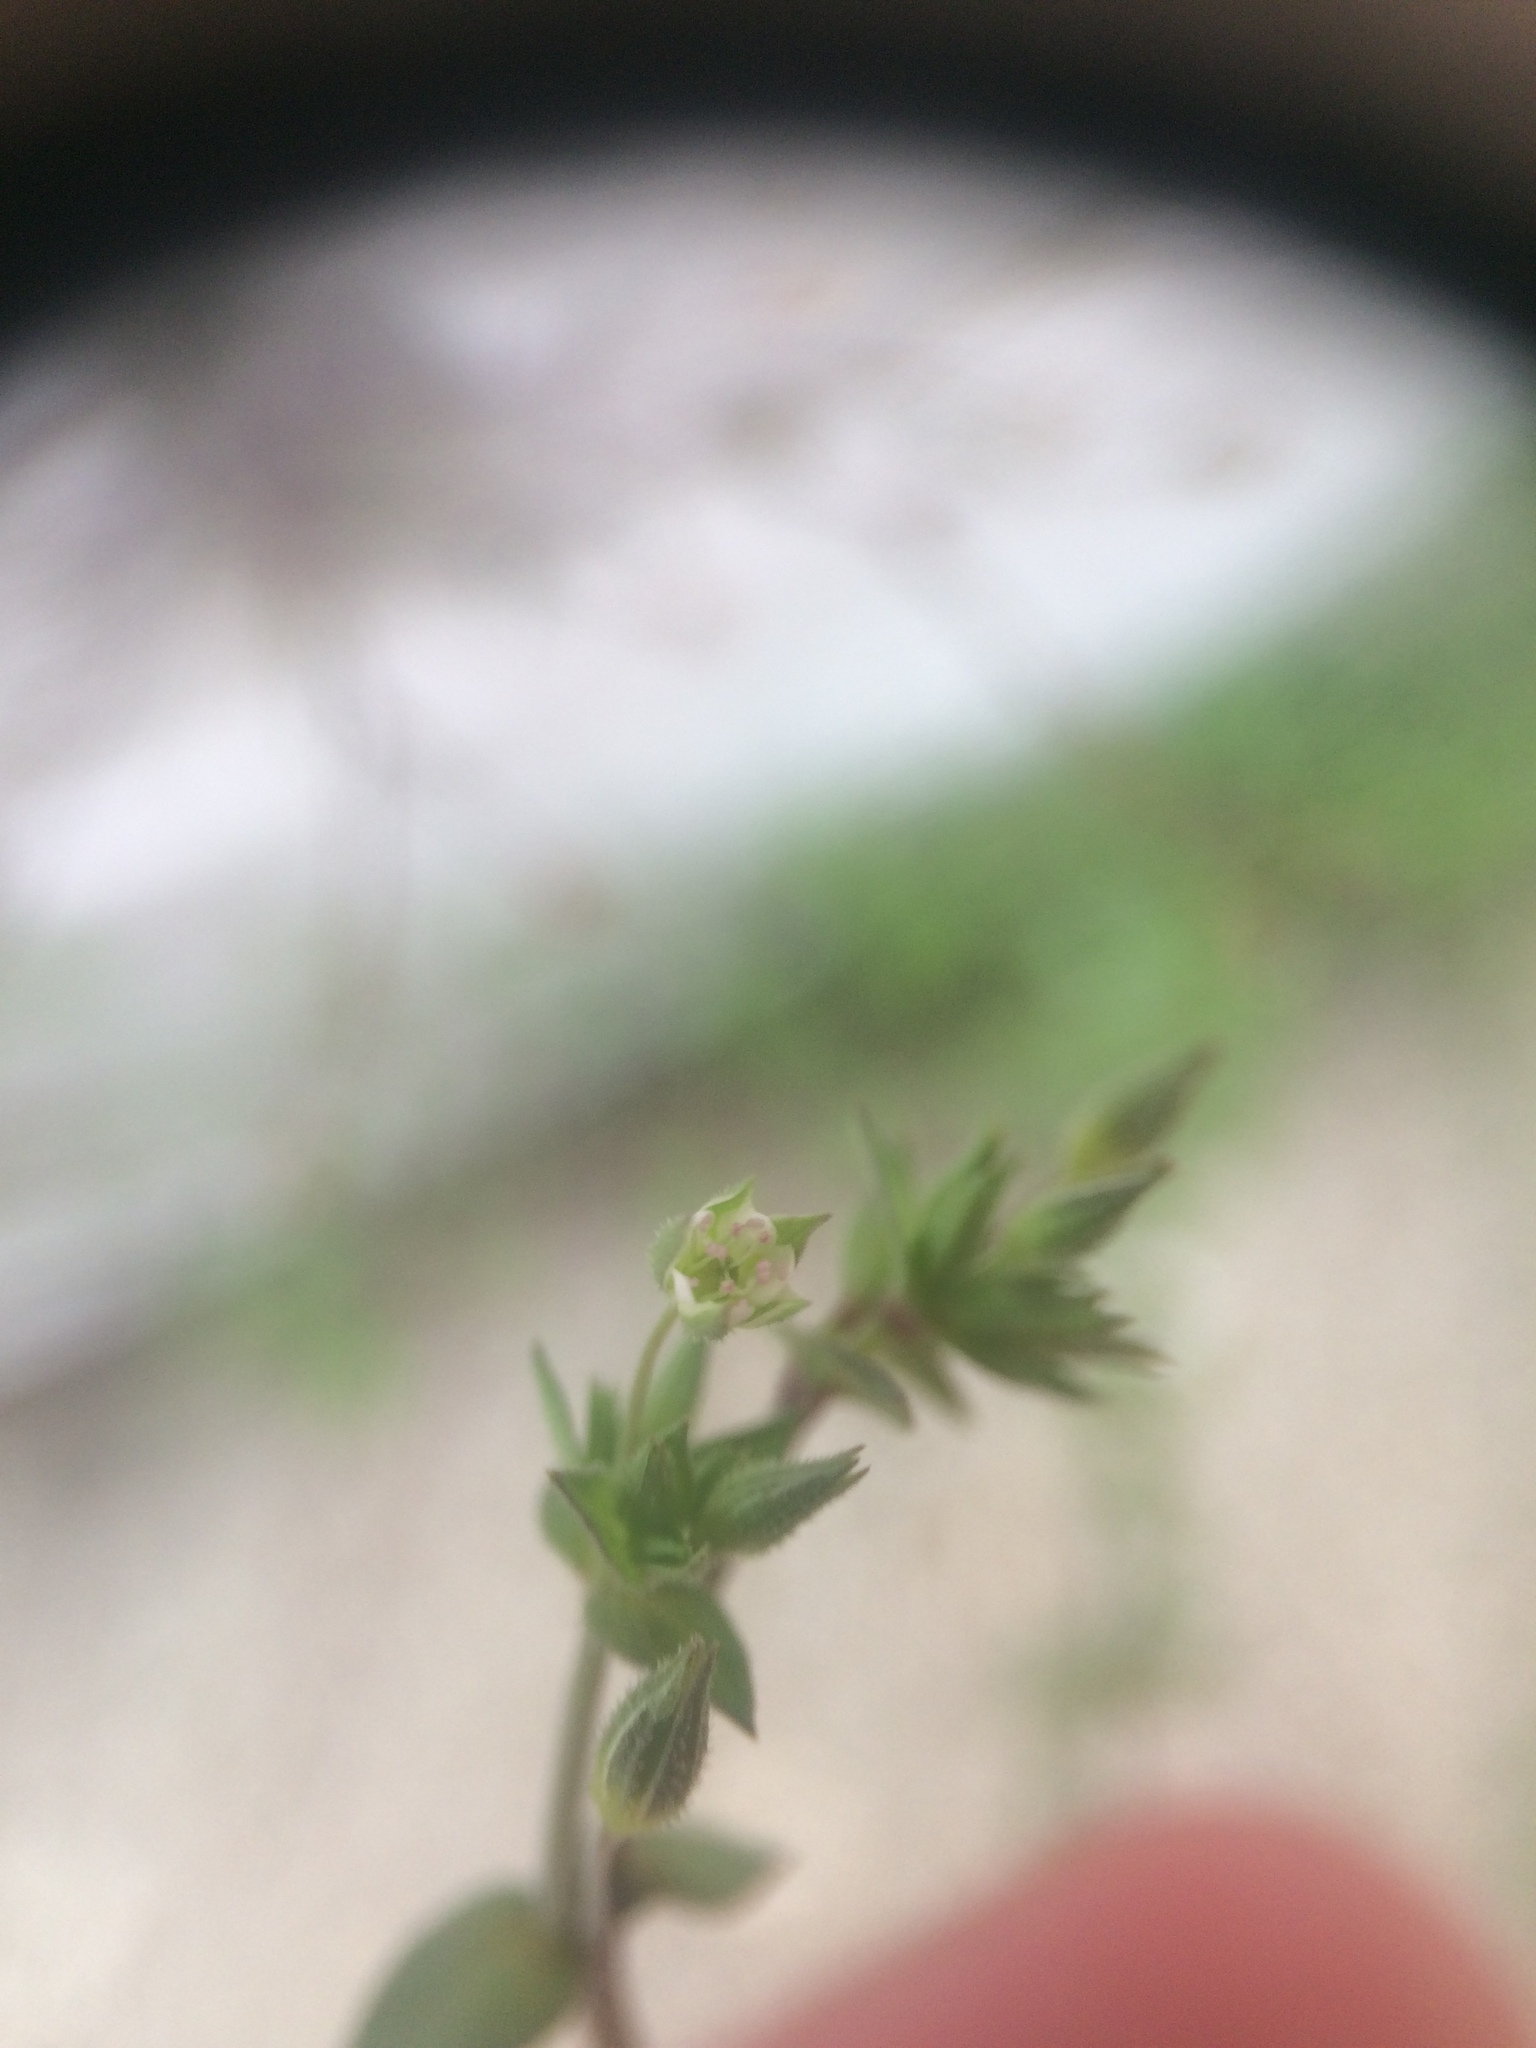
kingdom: Plantae
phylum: Tracheophyta
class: Magnoliopsida
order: Caryophyllales
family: Caryophyllaceae
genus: Arenaria
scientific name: Arenaria serpyllifolia
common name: Thyme-leaved sandwort
